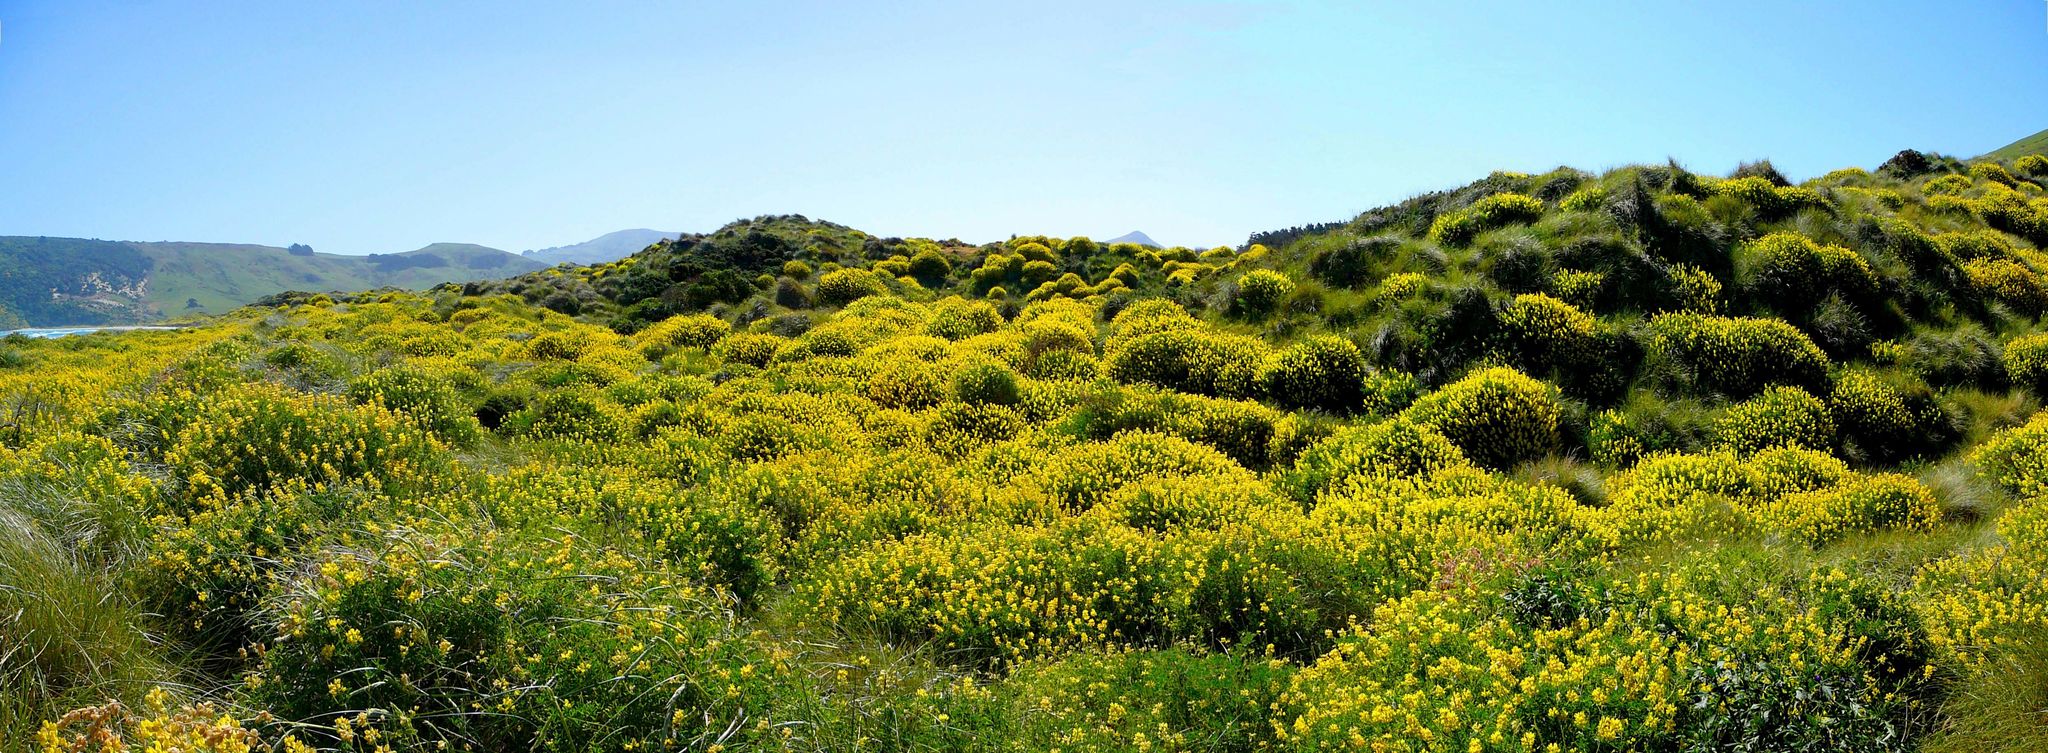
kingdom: Plantae
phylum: Tracheophyta
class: Magnoliopsida
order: Fabales
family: Fabaceae
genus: Lupinus
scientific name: Lupinus arboreus
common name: Yellow bush lupine
